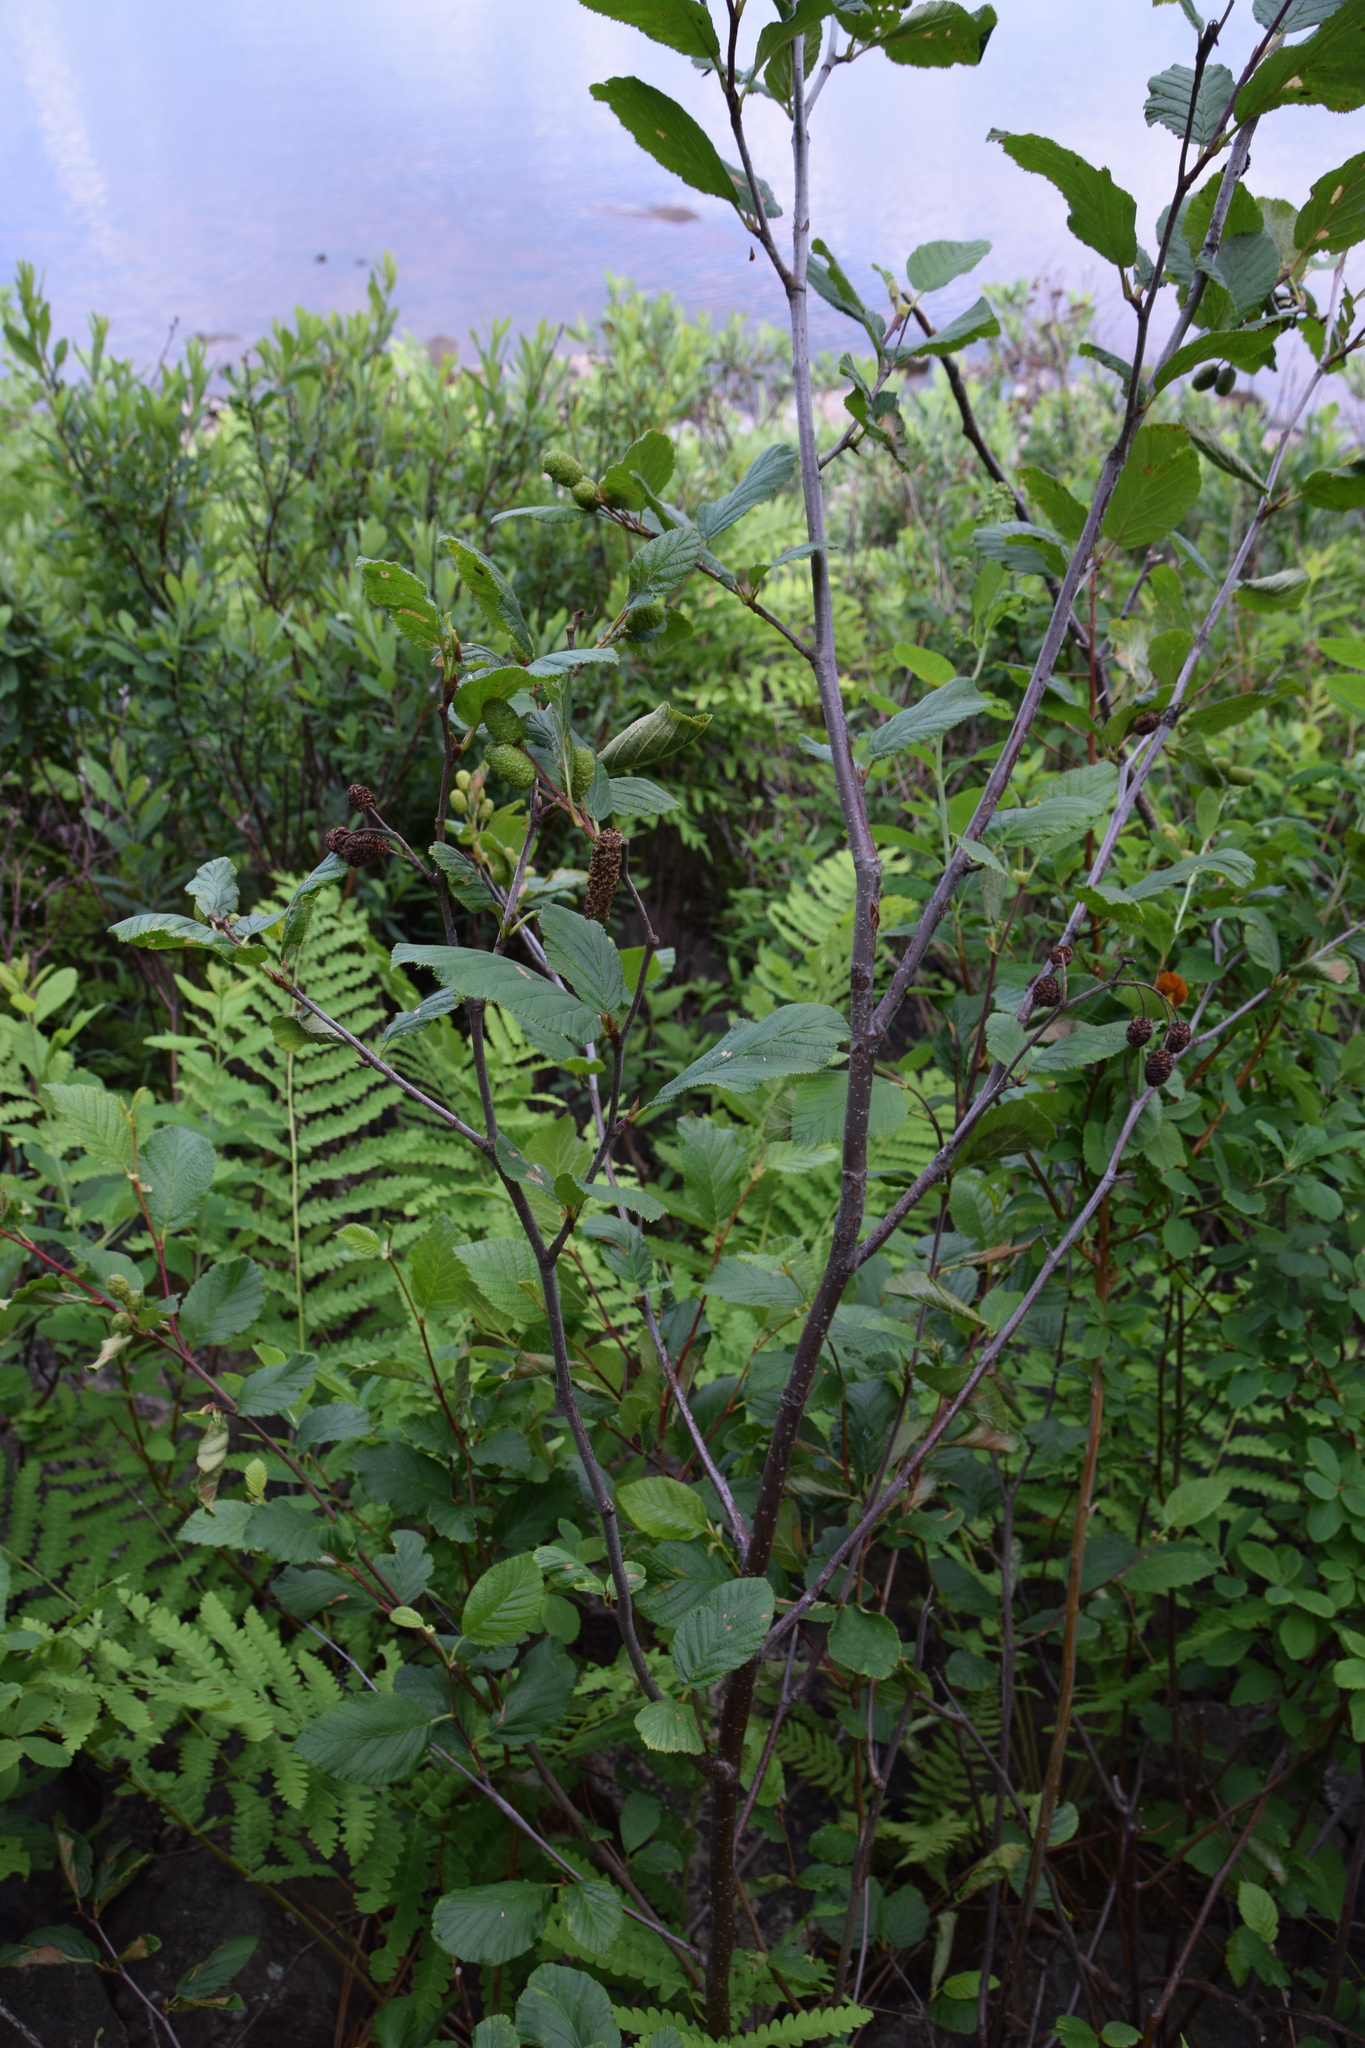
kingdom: Plantae
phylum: Tracheophyta
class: Magnoliopsida
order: Fagales
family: Betulaceae
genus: Alnus
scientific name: Alnus alnobetula
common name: Green alder
